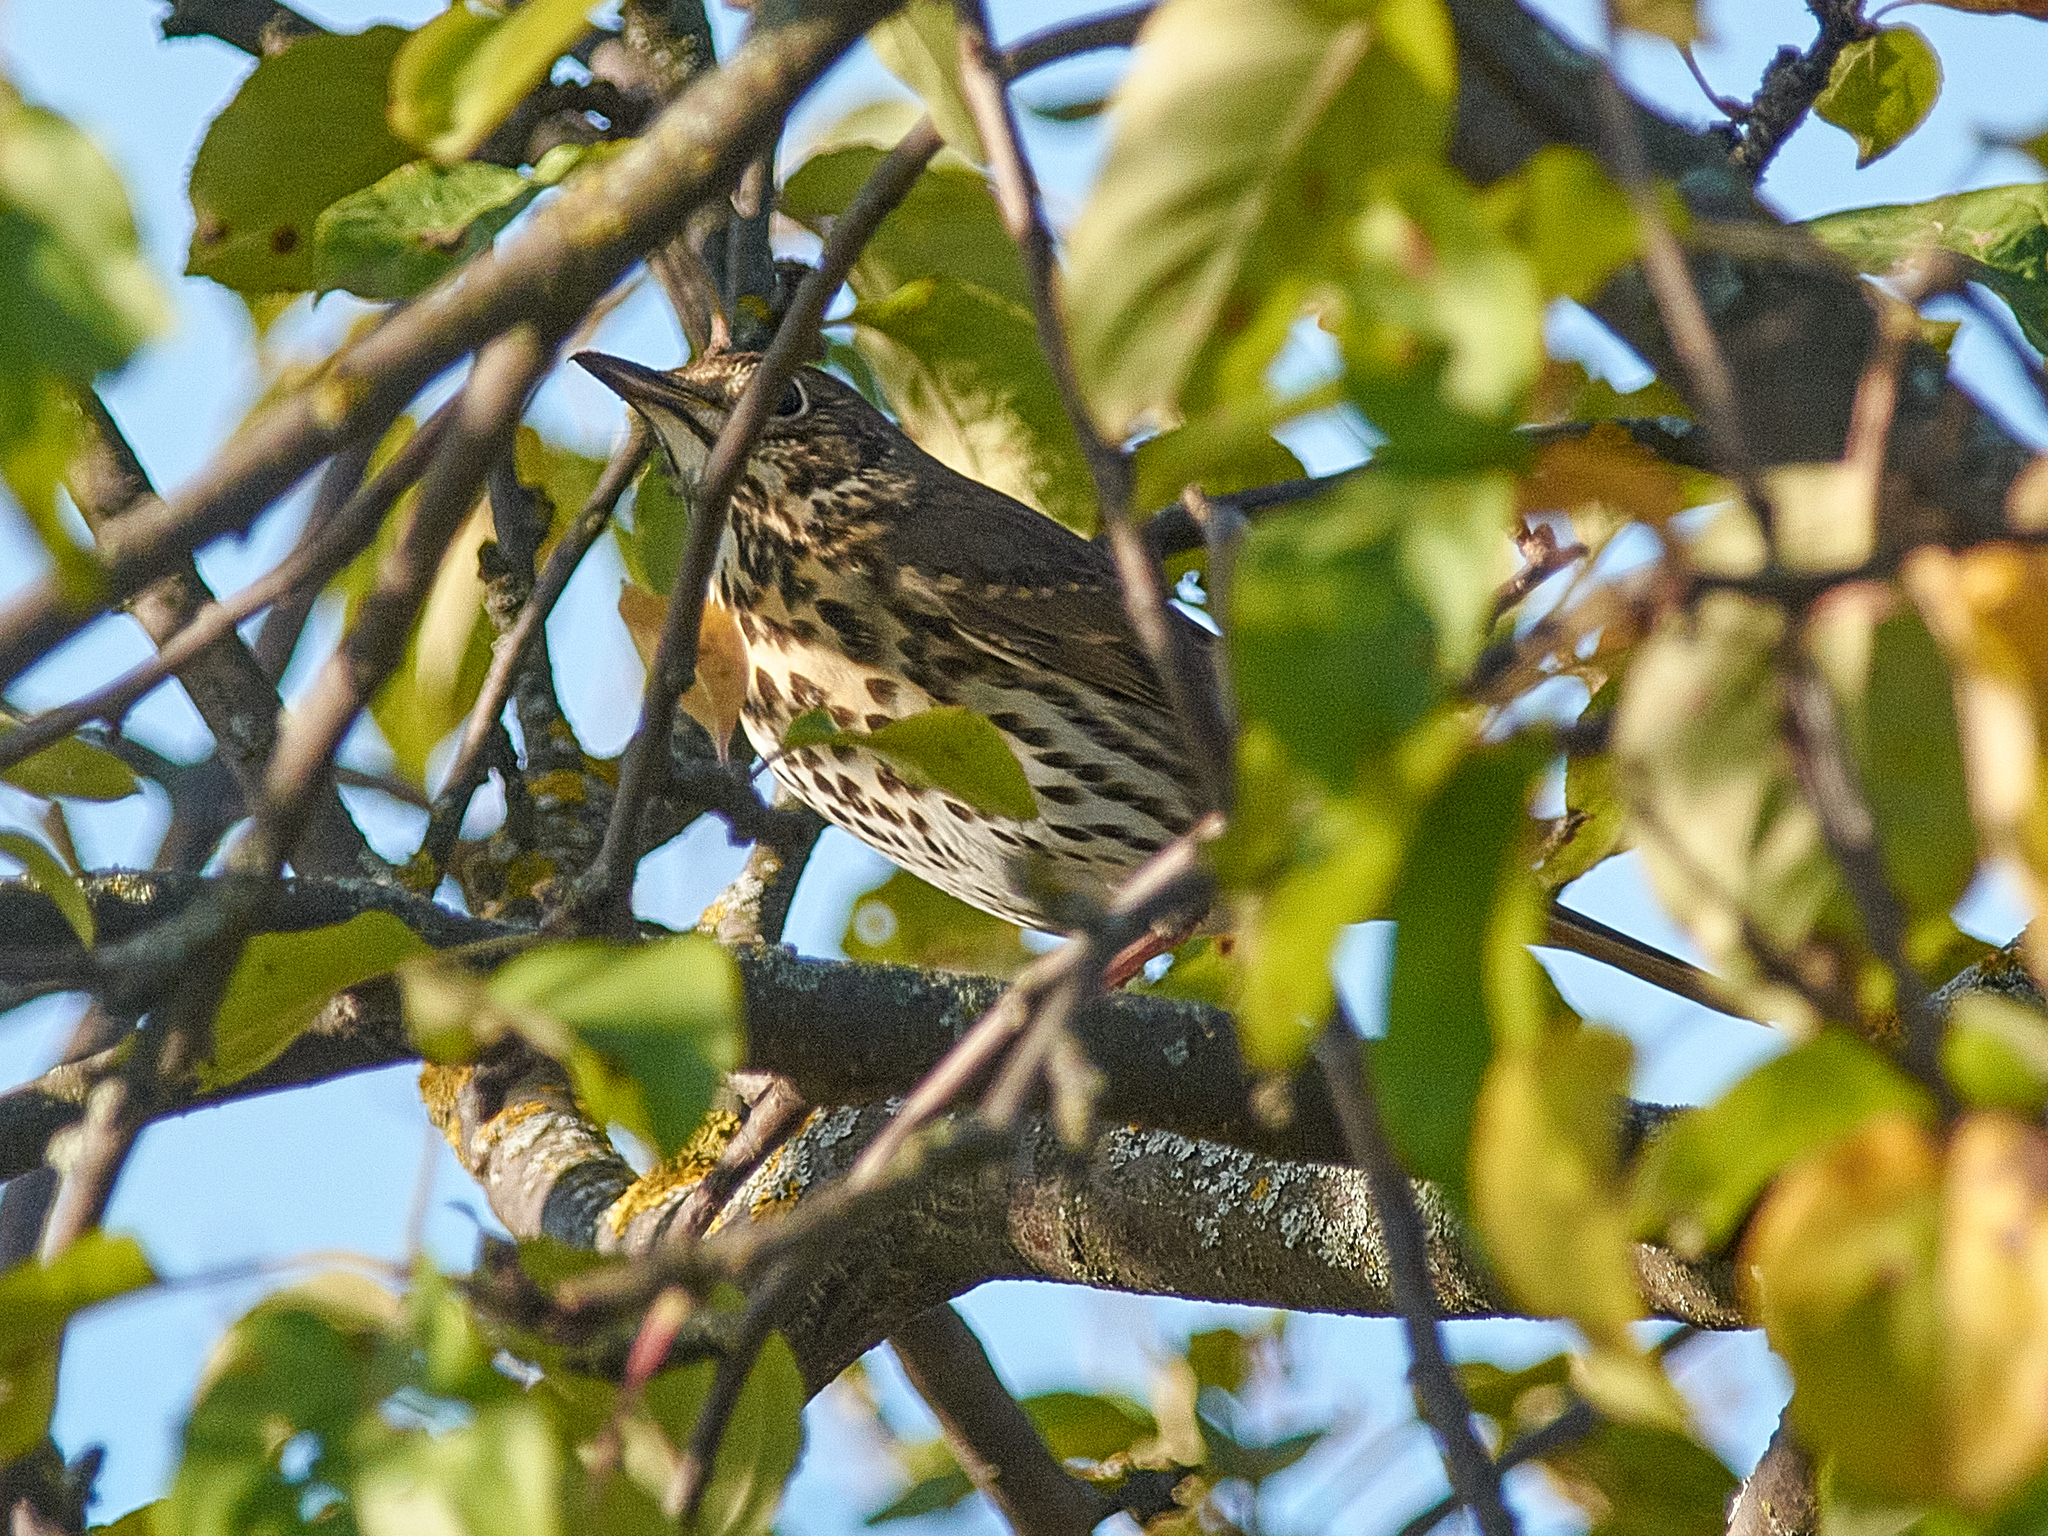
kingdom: Animalia
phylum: Chordata
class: Aves
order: Passeriformes
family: Turdidae
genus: Turdus
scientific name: Turdus philomelos
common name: Song thrush
